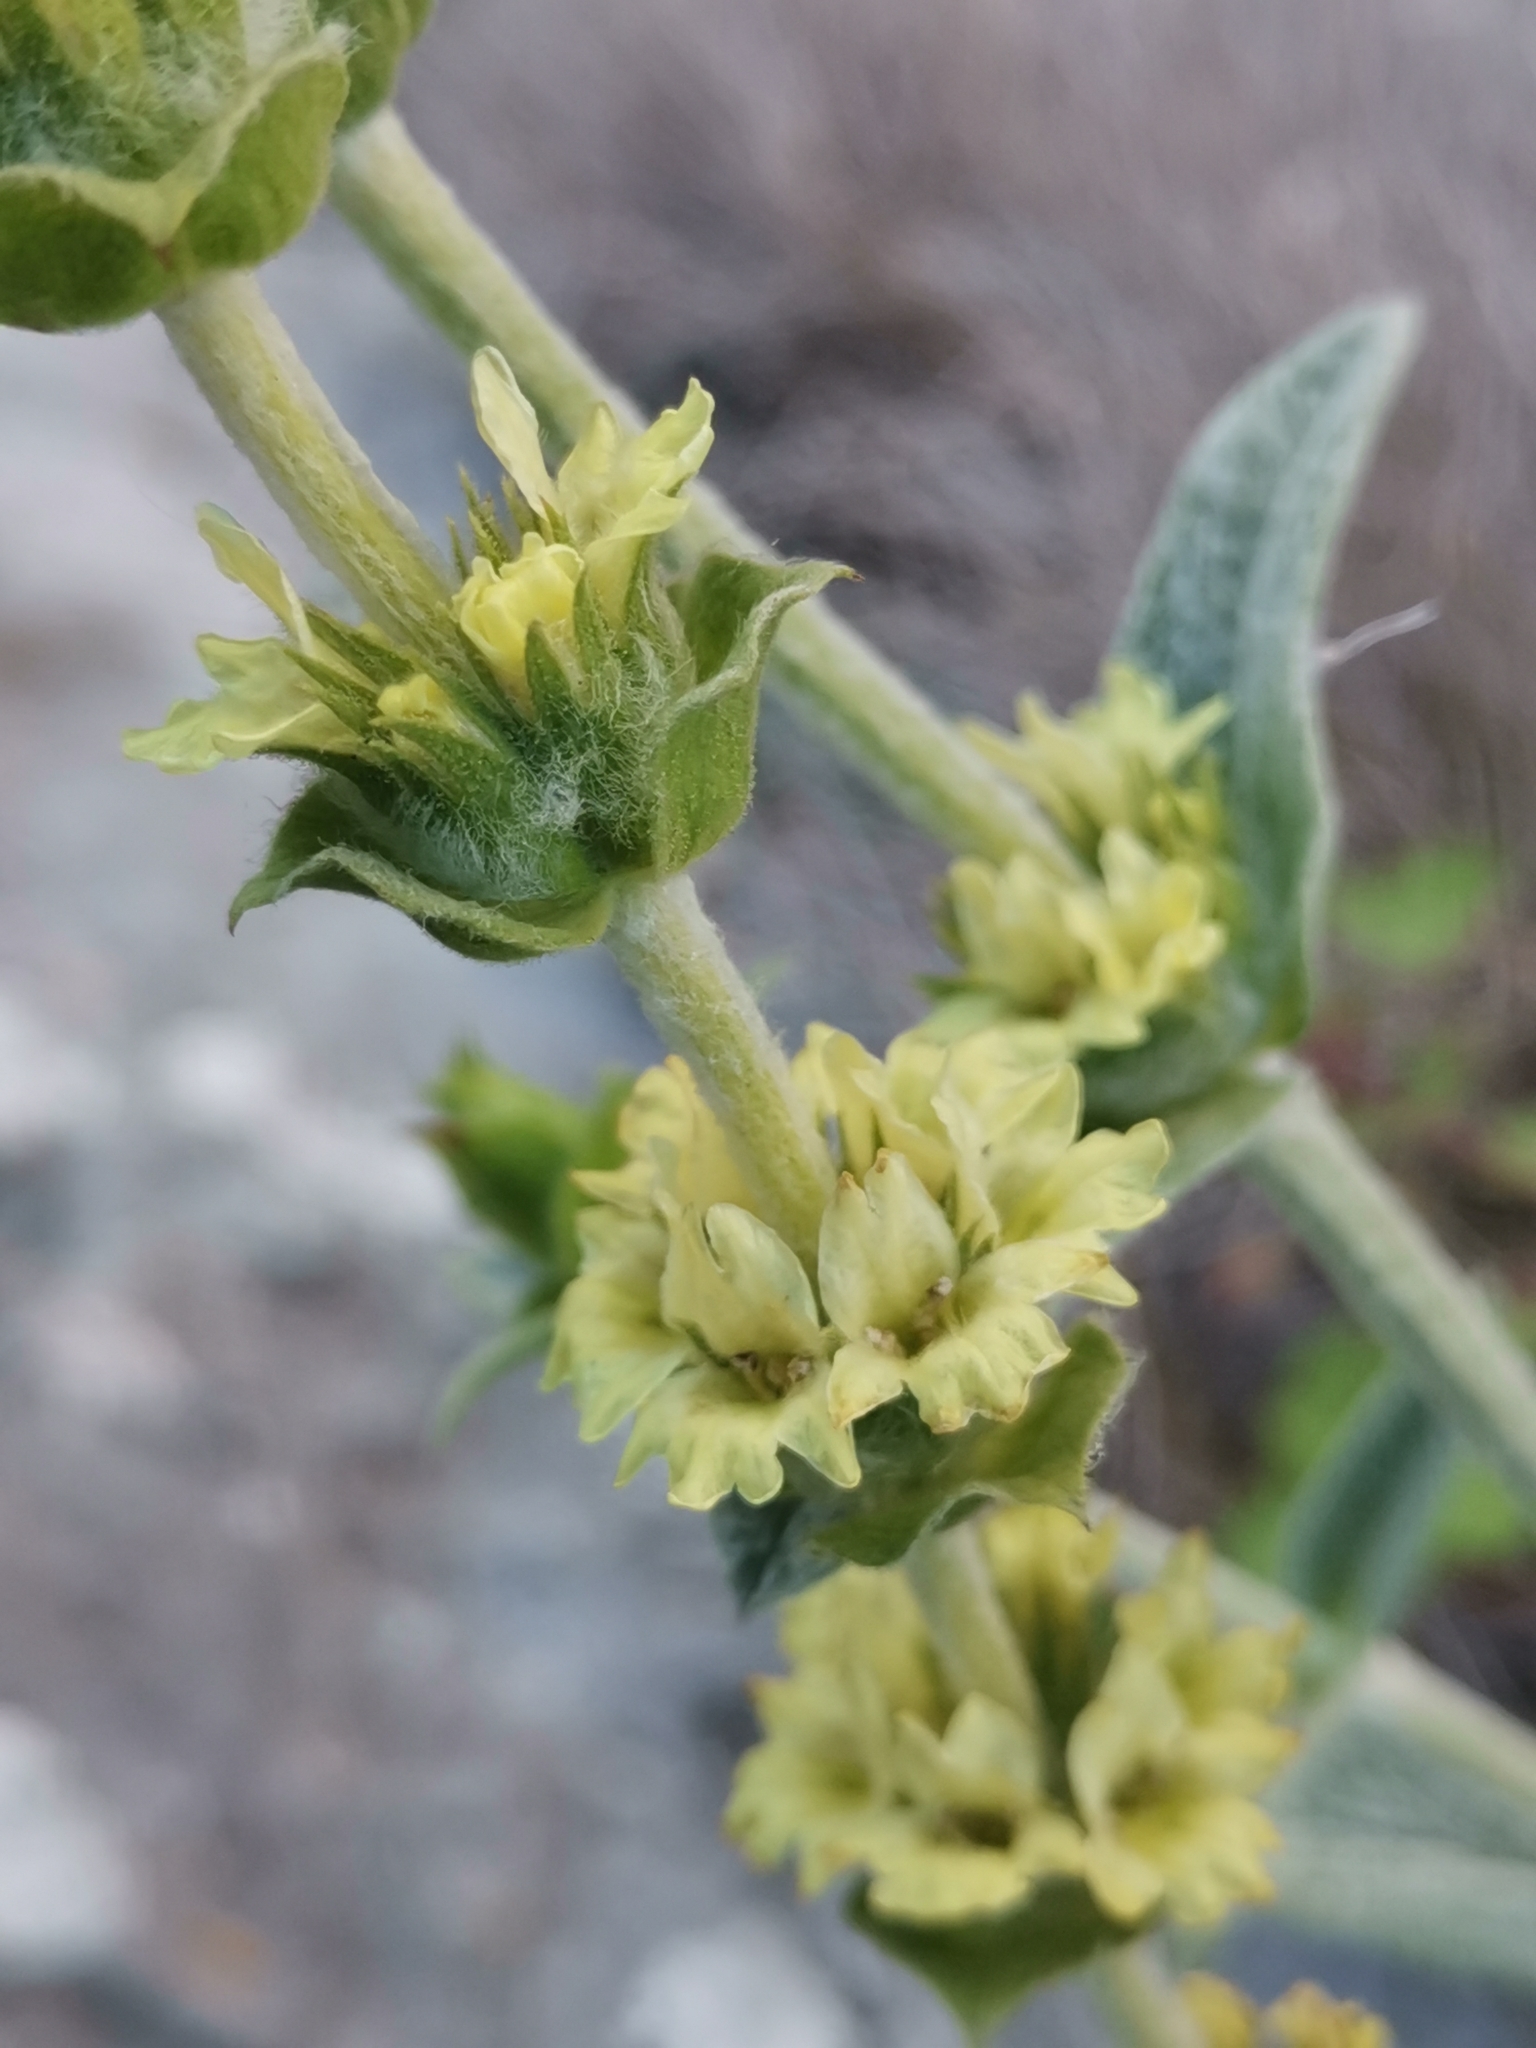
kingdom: Plantae
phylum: Tracheophyta
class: Magnoliopsida
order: Lamiales
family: Lamiaceae
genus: Sideritis
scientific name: Sideritis italica
